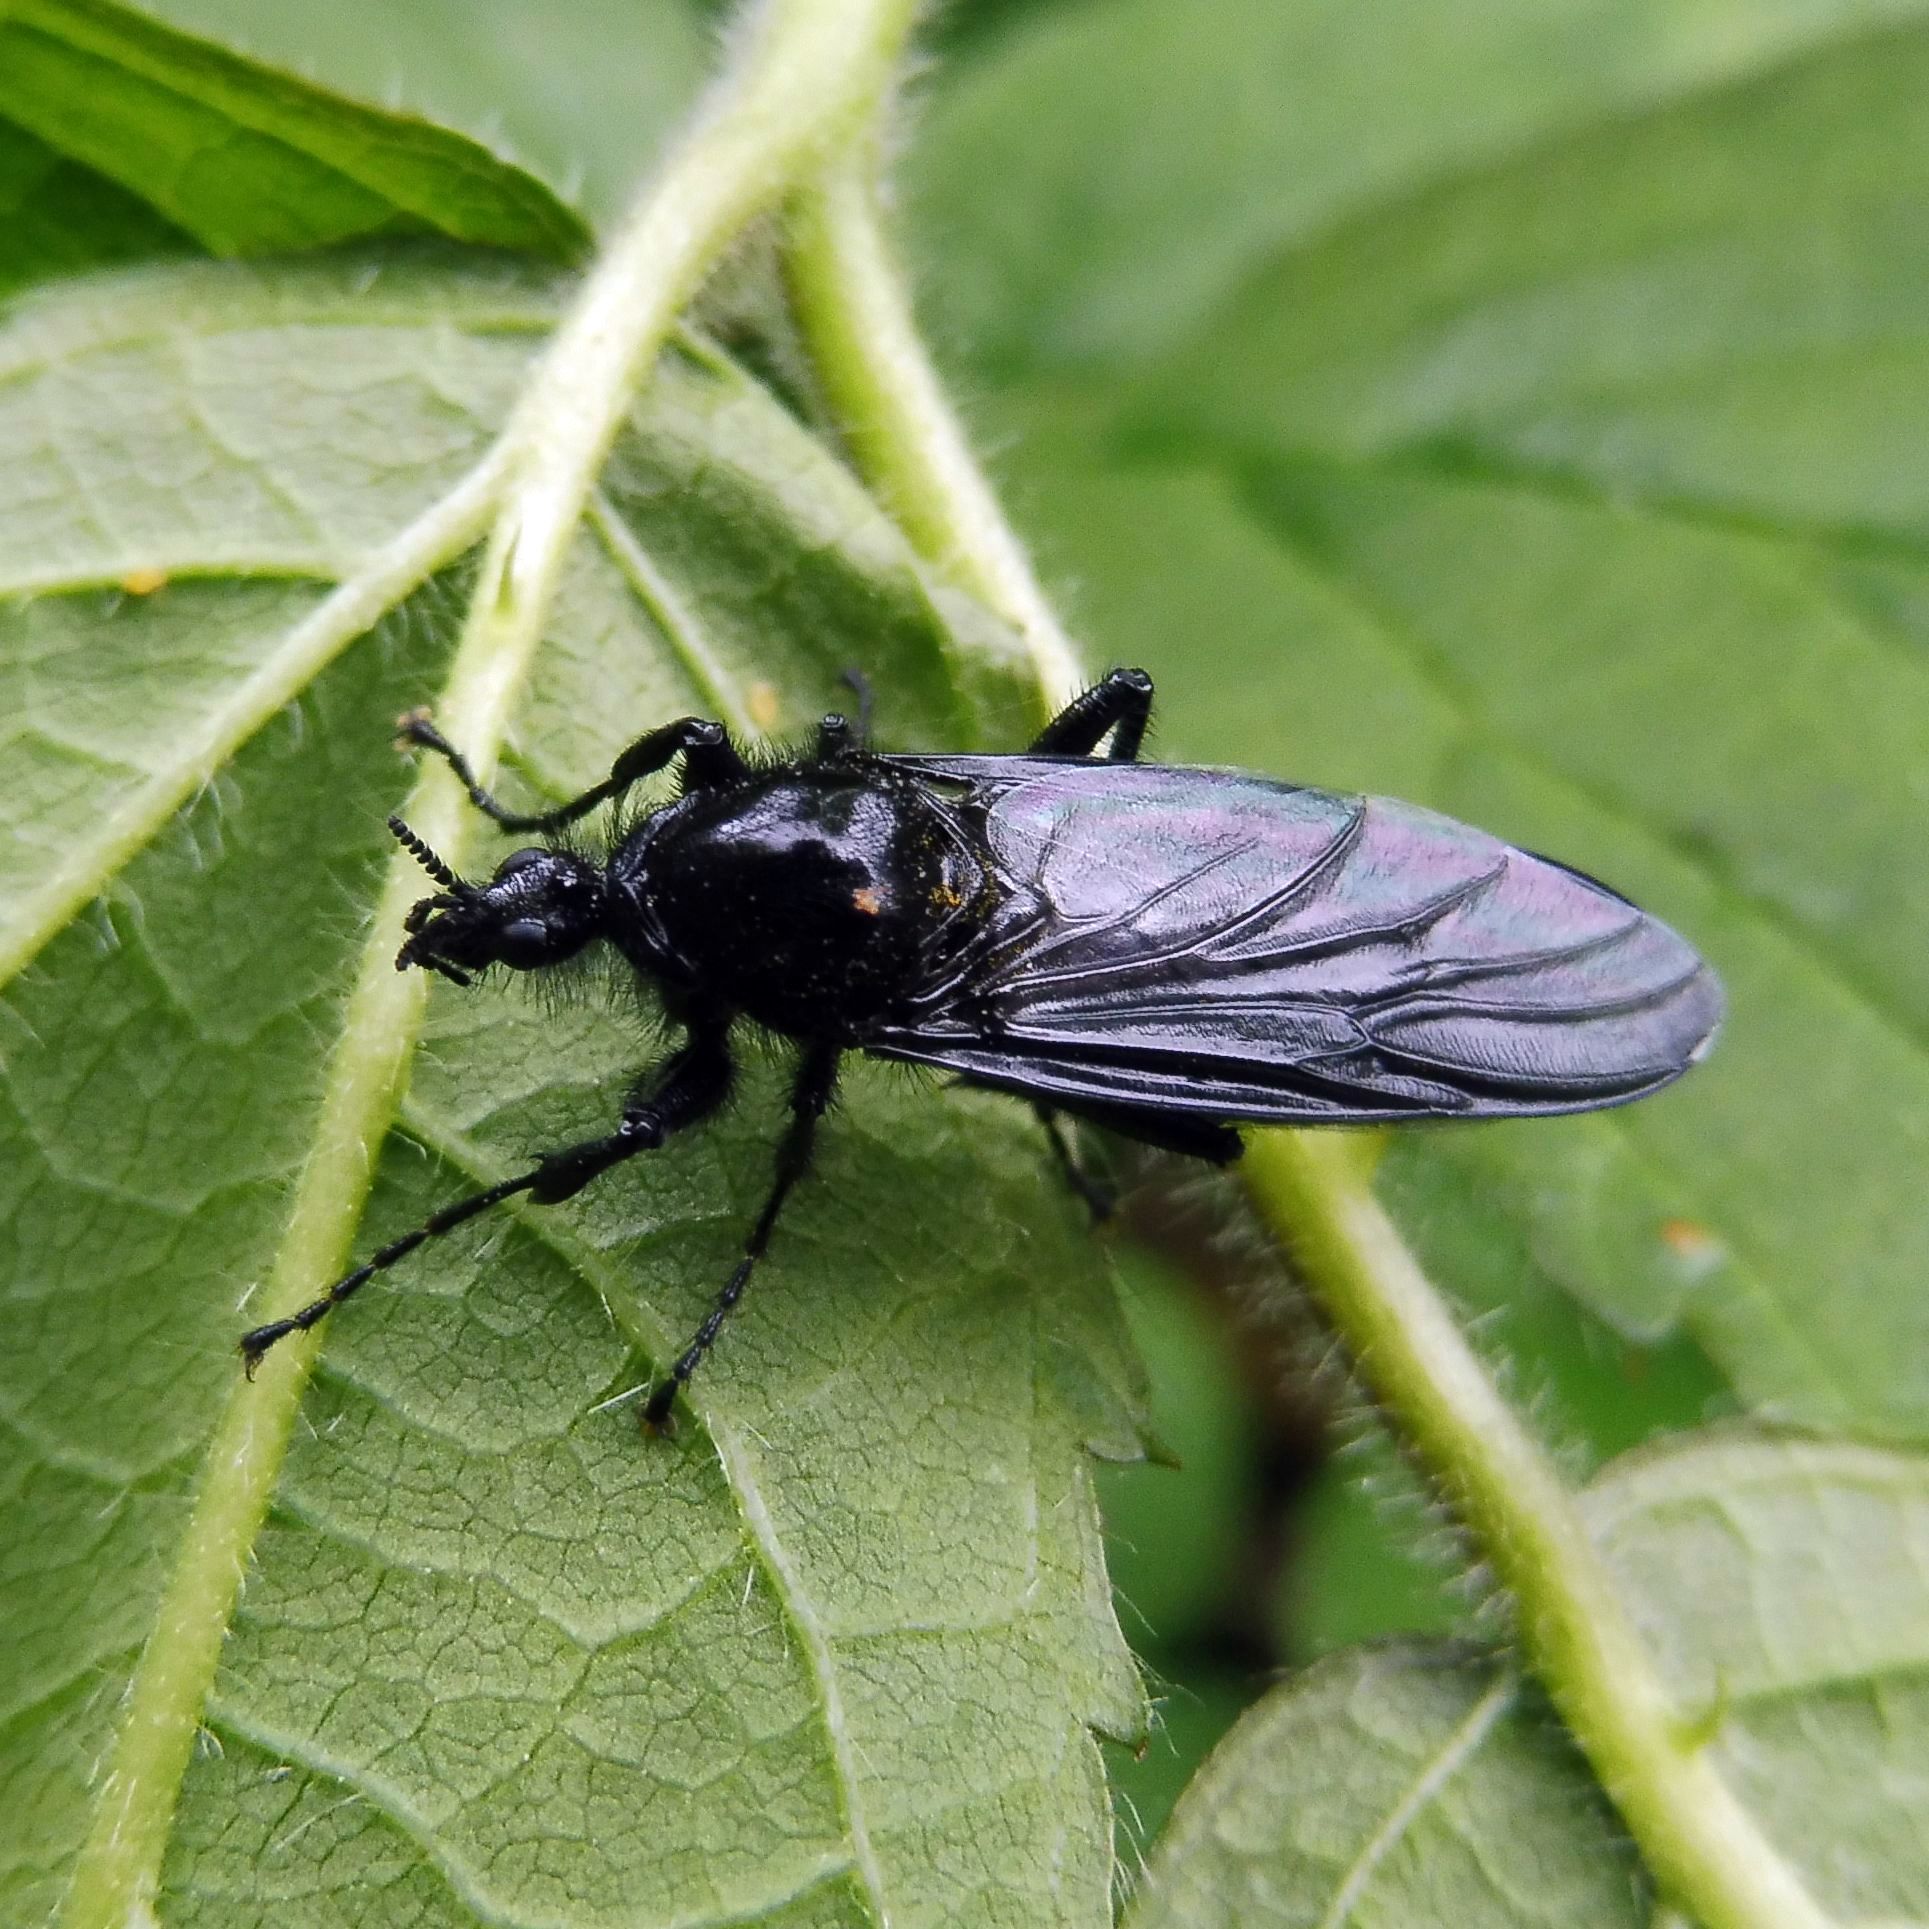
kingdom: Animalia
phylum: Arthropoda
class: Insecta
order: Diptera
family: Bibionidae
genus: Bibio
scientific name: Bibio marci
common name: St marks fly
